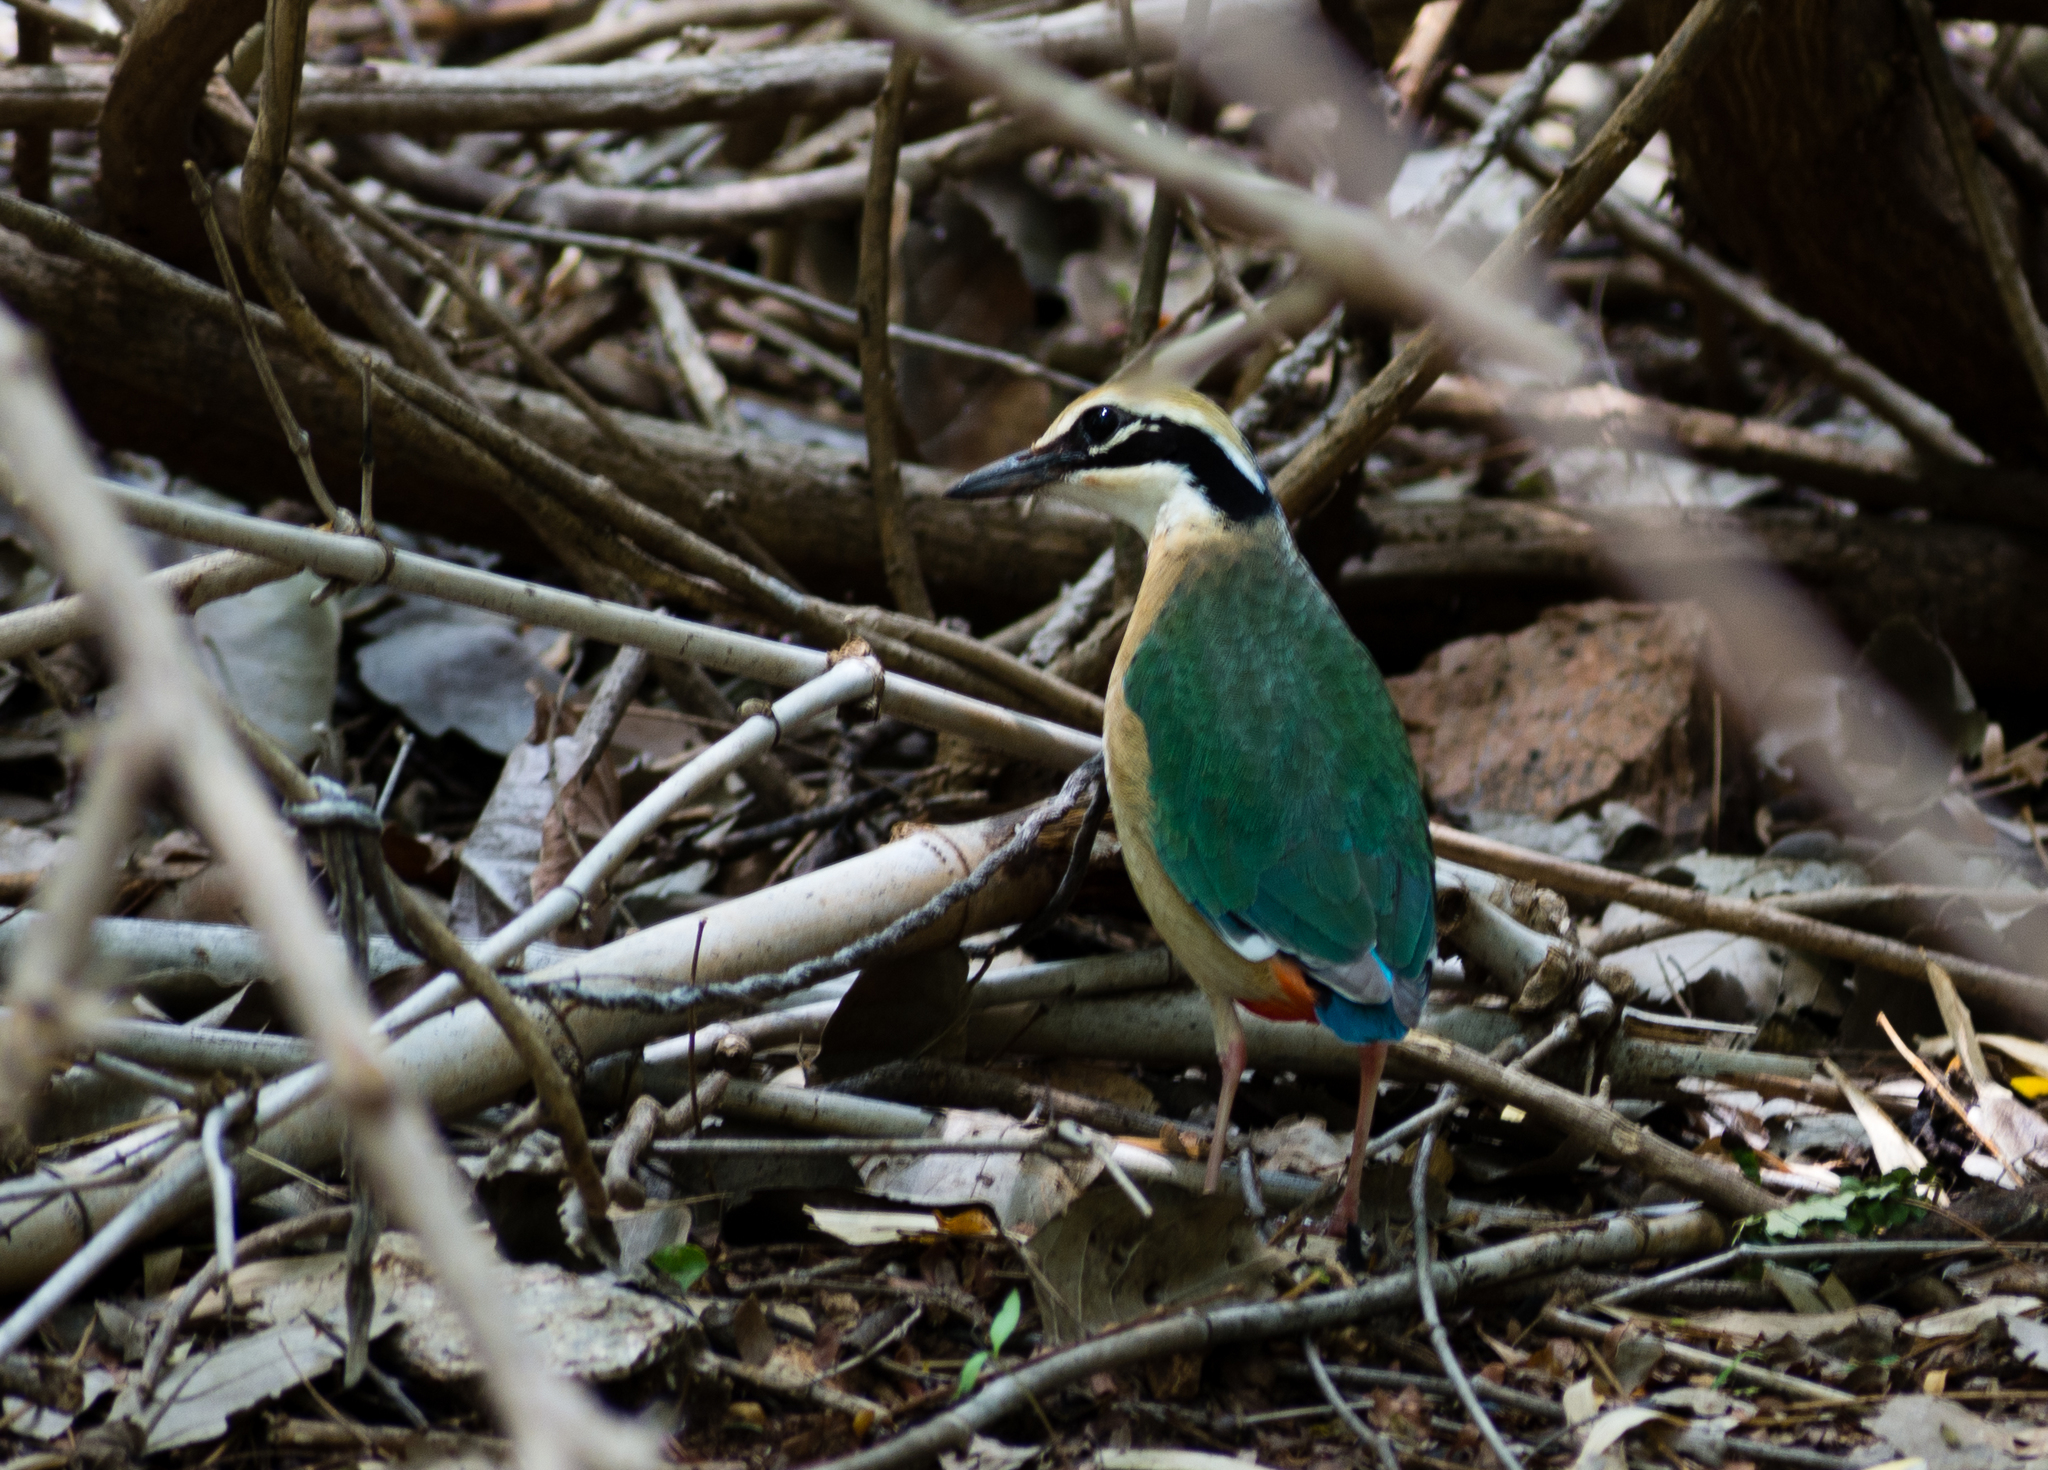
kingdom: Animalia
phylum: Chordata
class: Aves
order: Passeriformes
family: Pittidae
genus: Pitta
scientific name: Pitta brachyura
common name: Indian pitta
